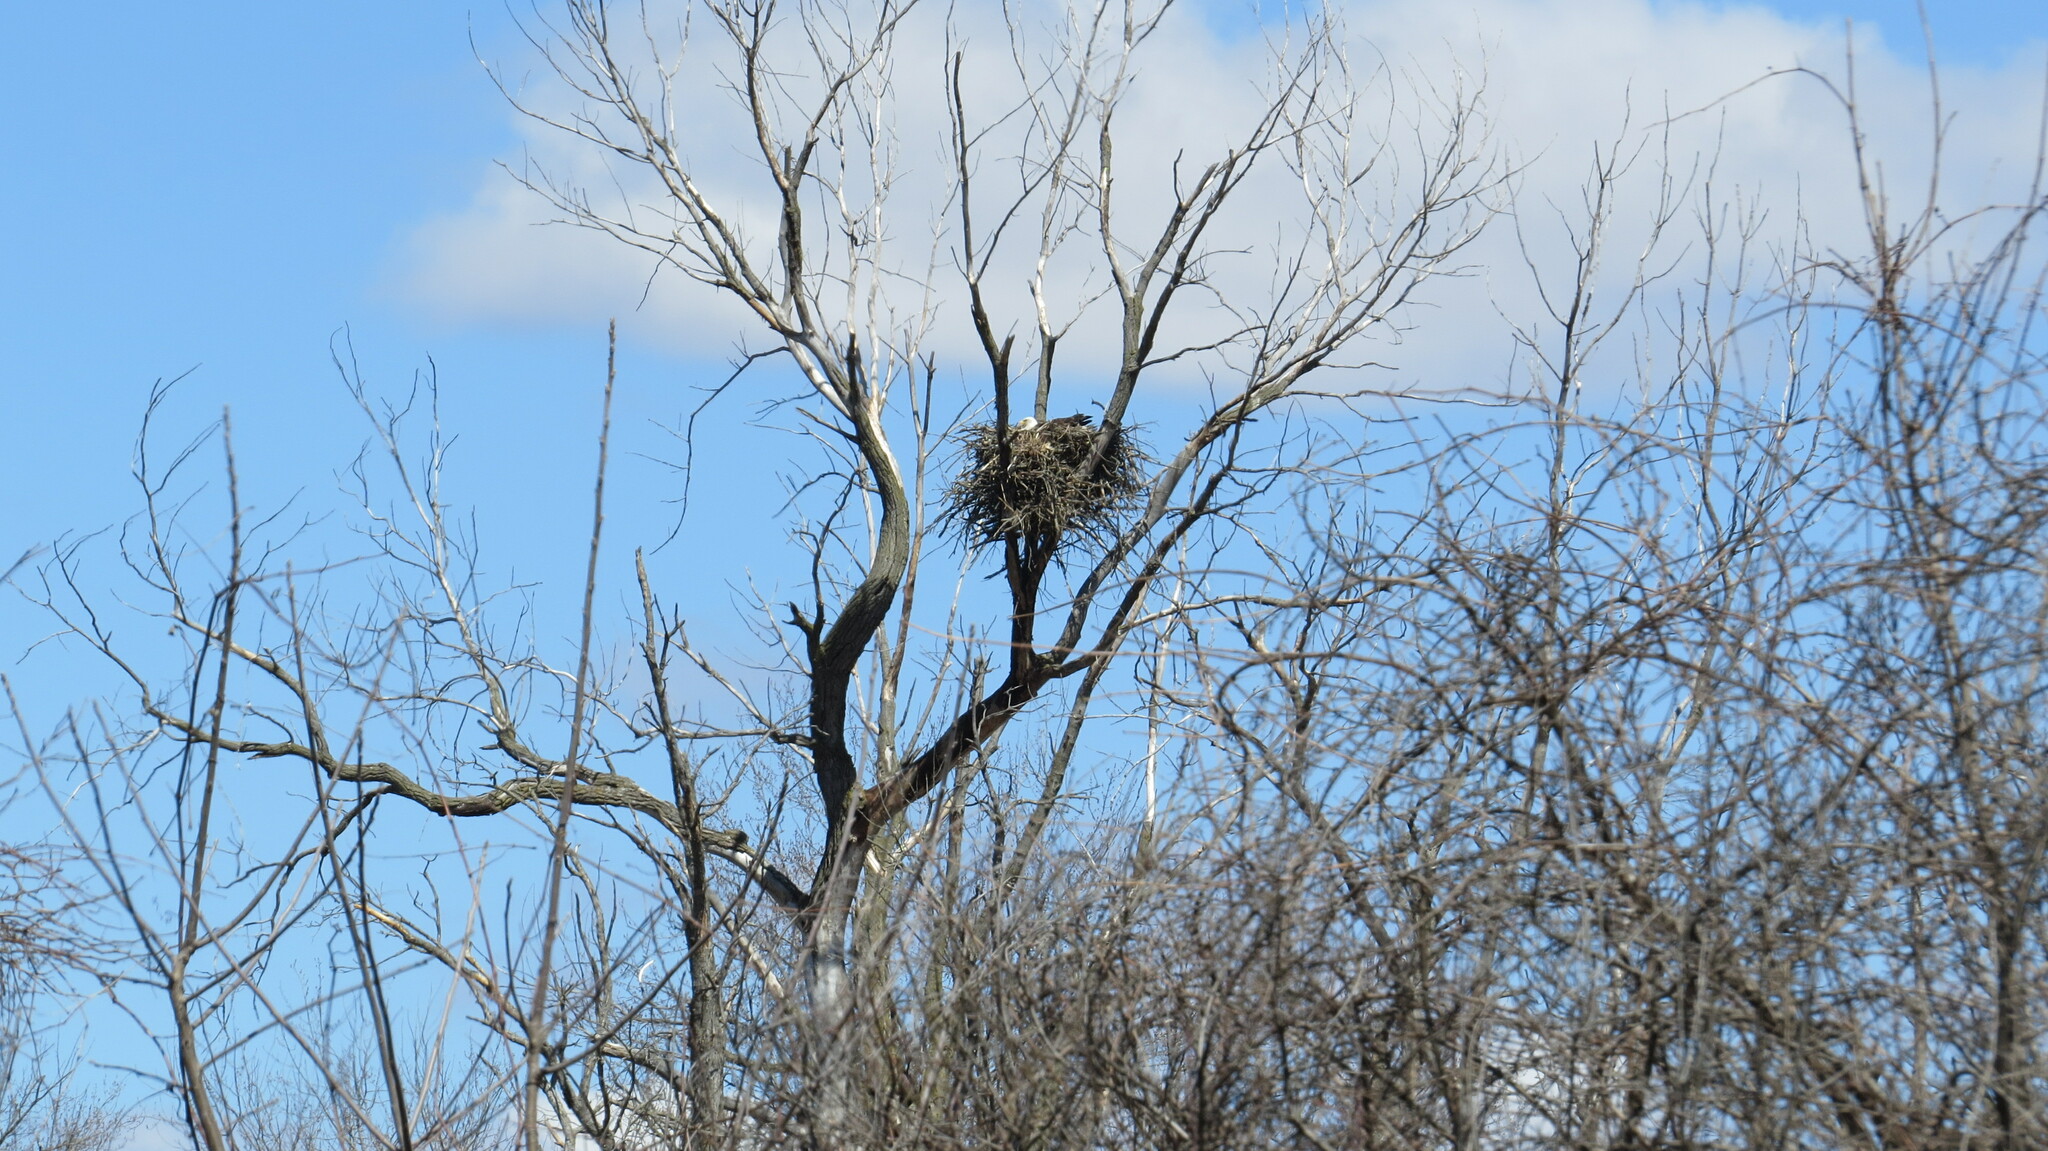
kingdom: Animalia
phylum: Chordata
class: Aves
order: Accipitriformes
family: Accipitridae
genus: Haliaeetus
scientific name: Haliaeetus leucocephalus
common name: Bald eagle
